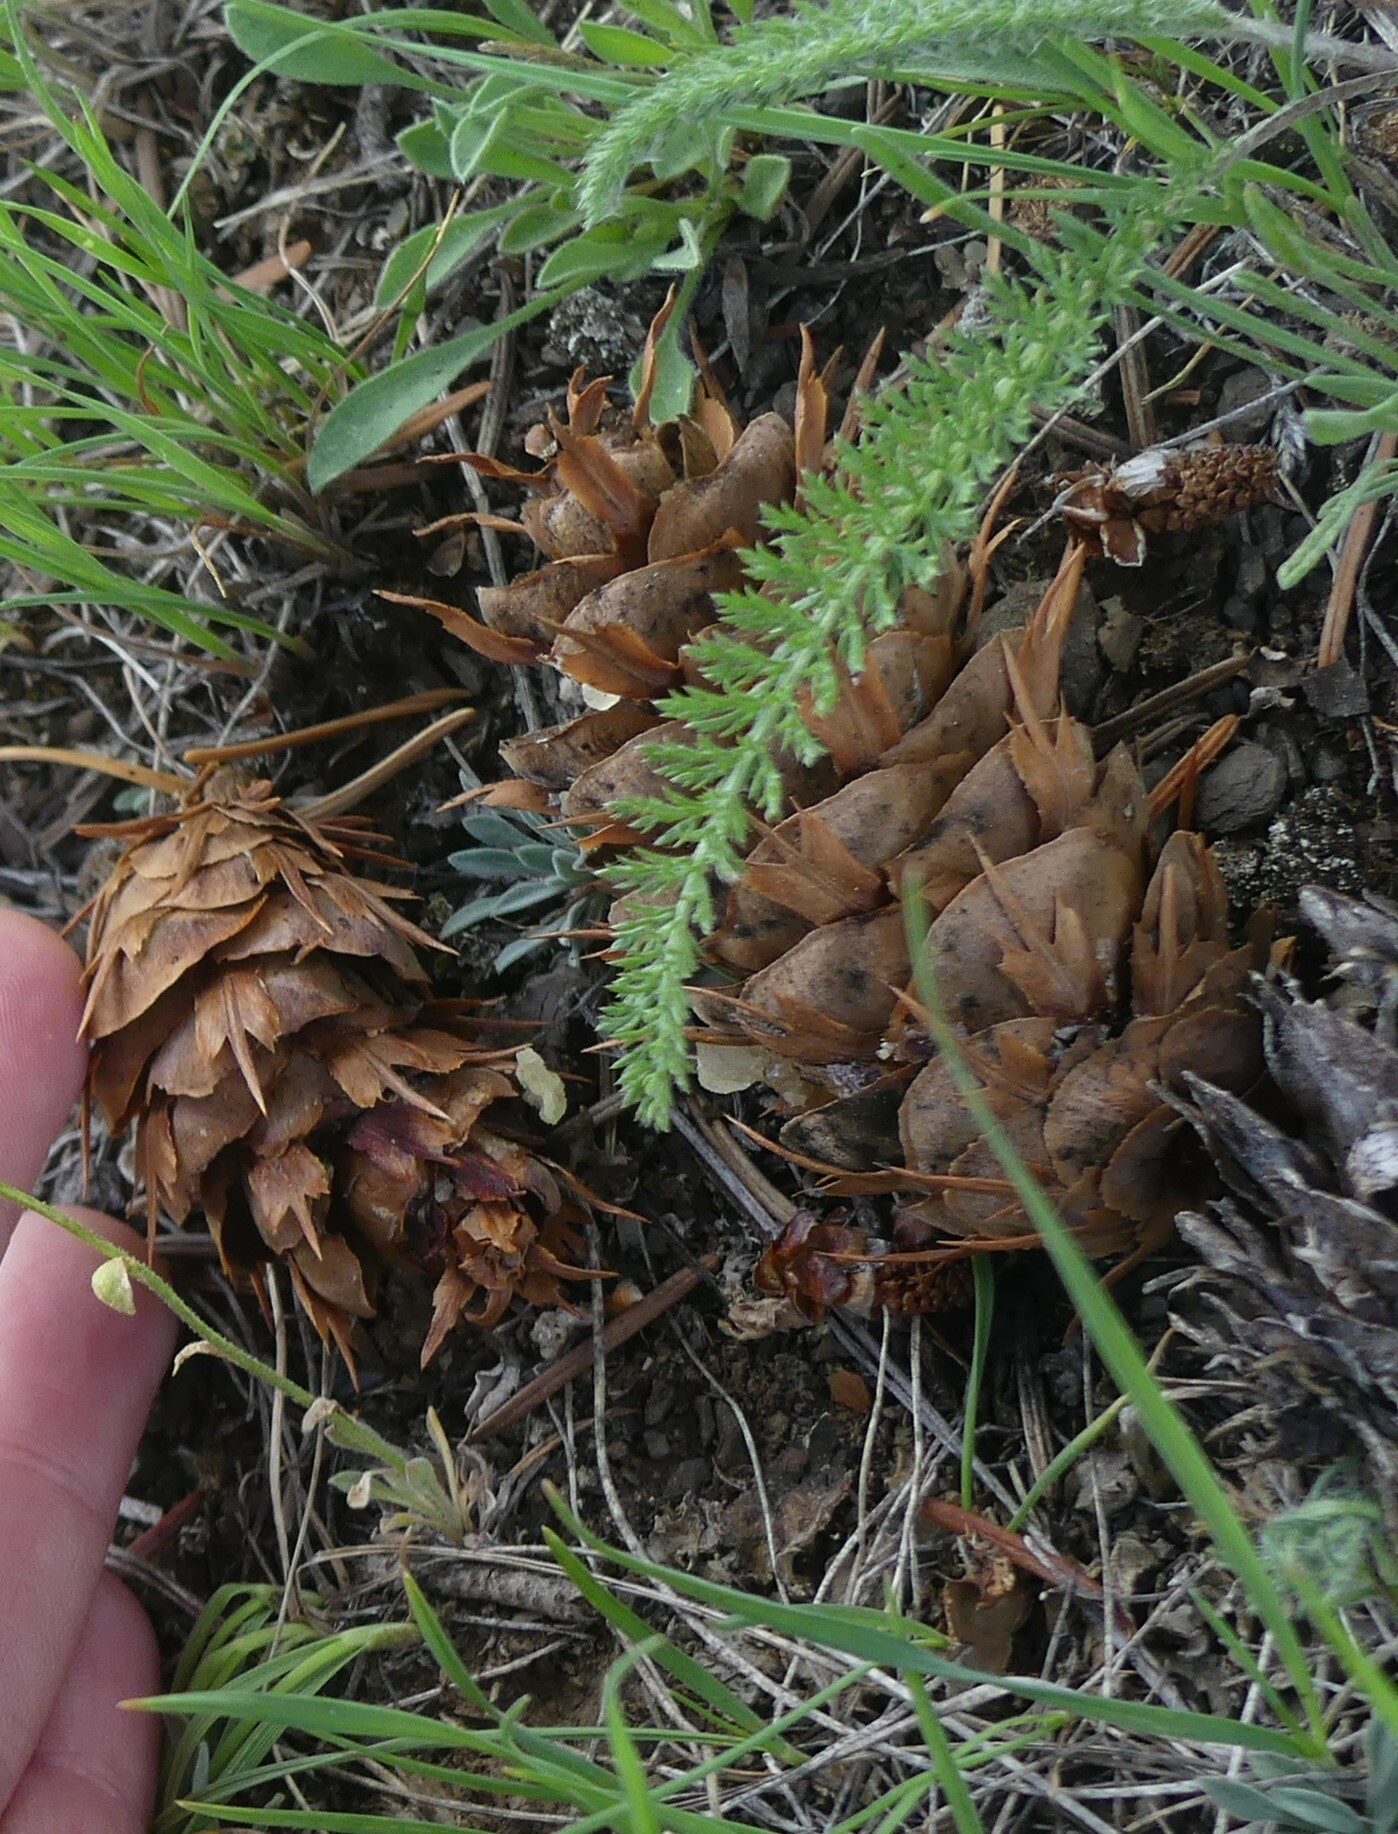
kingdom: Plantae
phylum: Tracheophyta
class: Pinopsida
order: Pinales
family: Pinaceae
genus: Pseudotsuga
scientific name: Pseudotsuga menziesii
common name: Douglas fir
